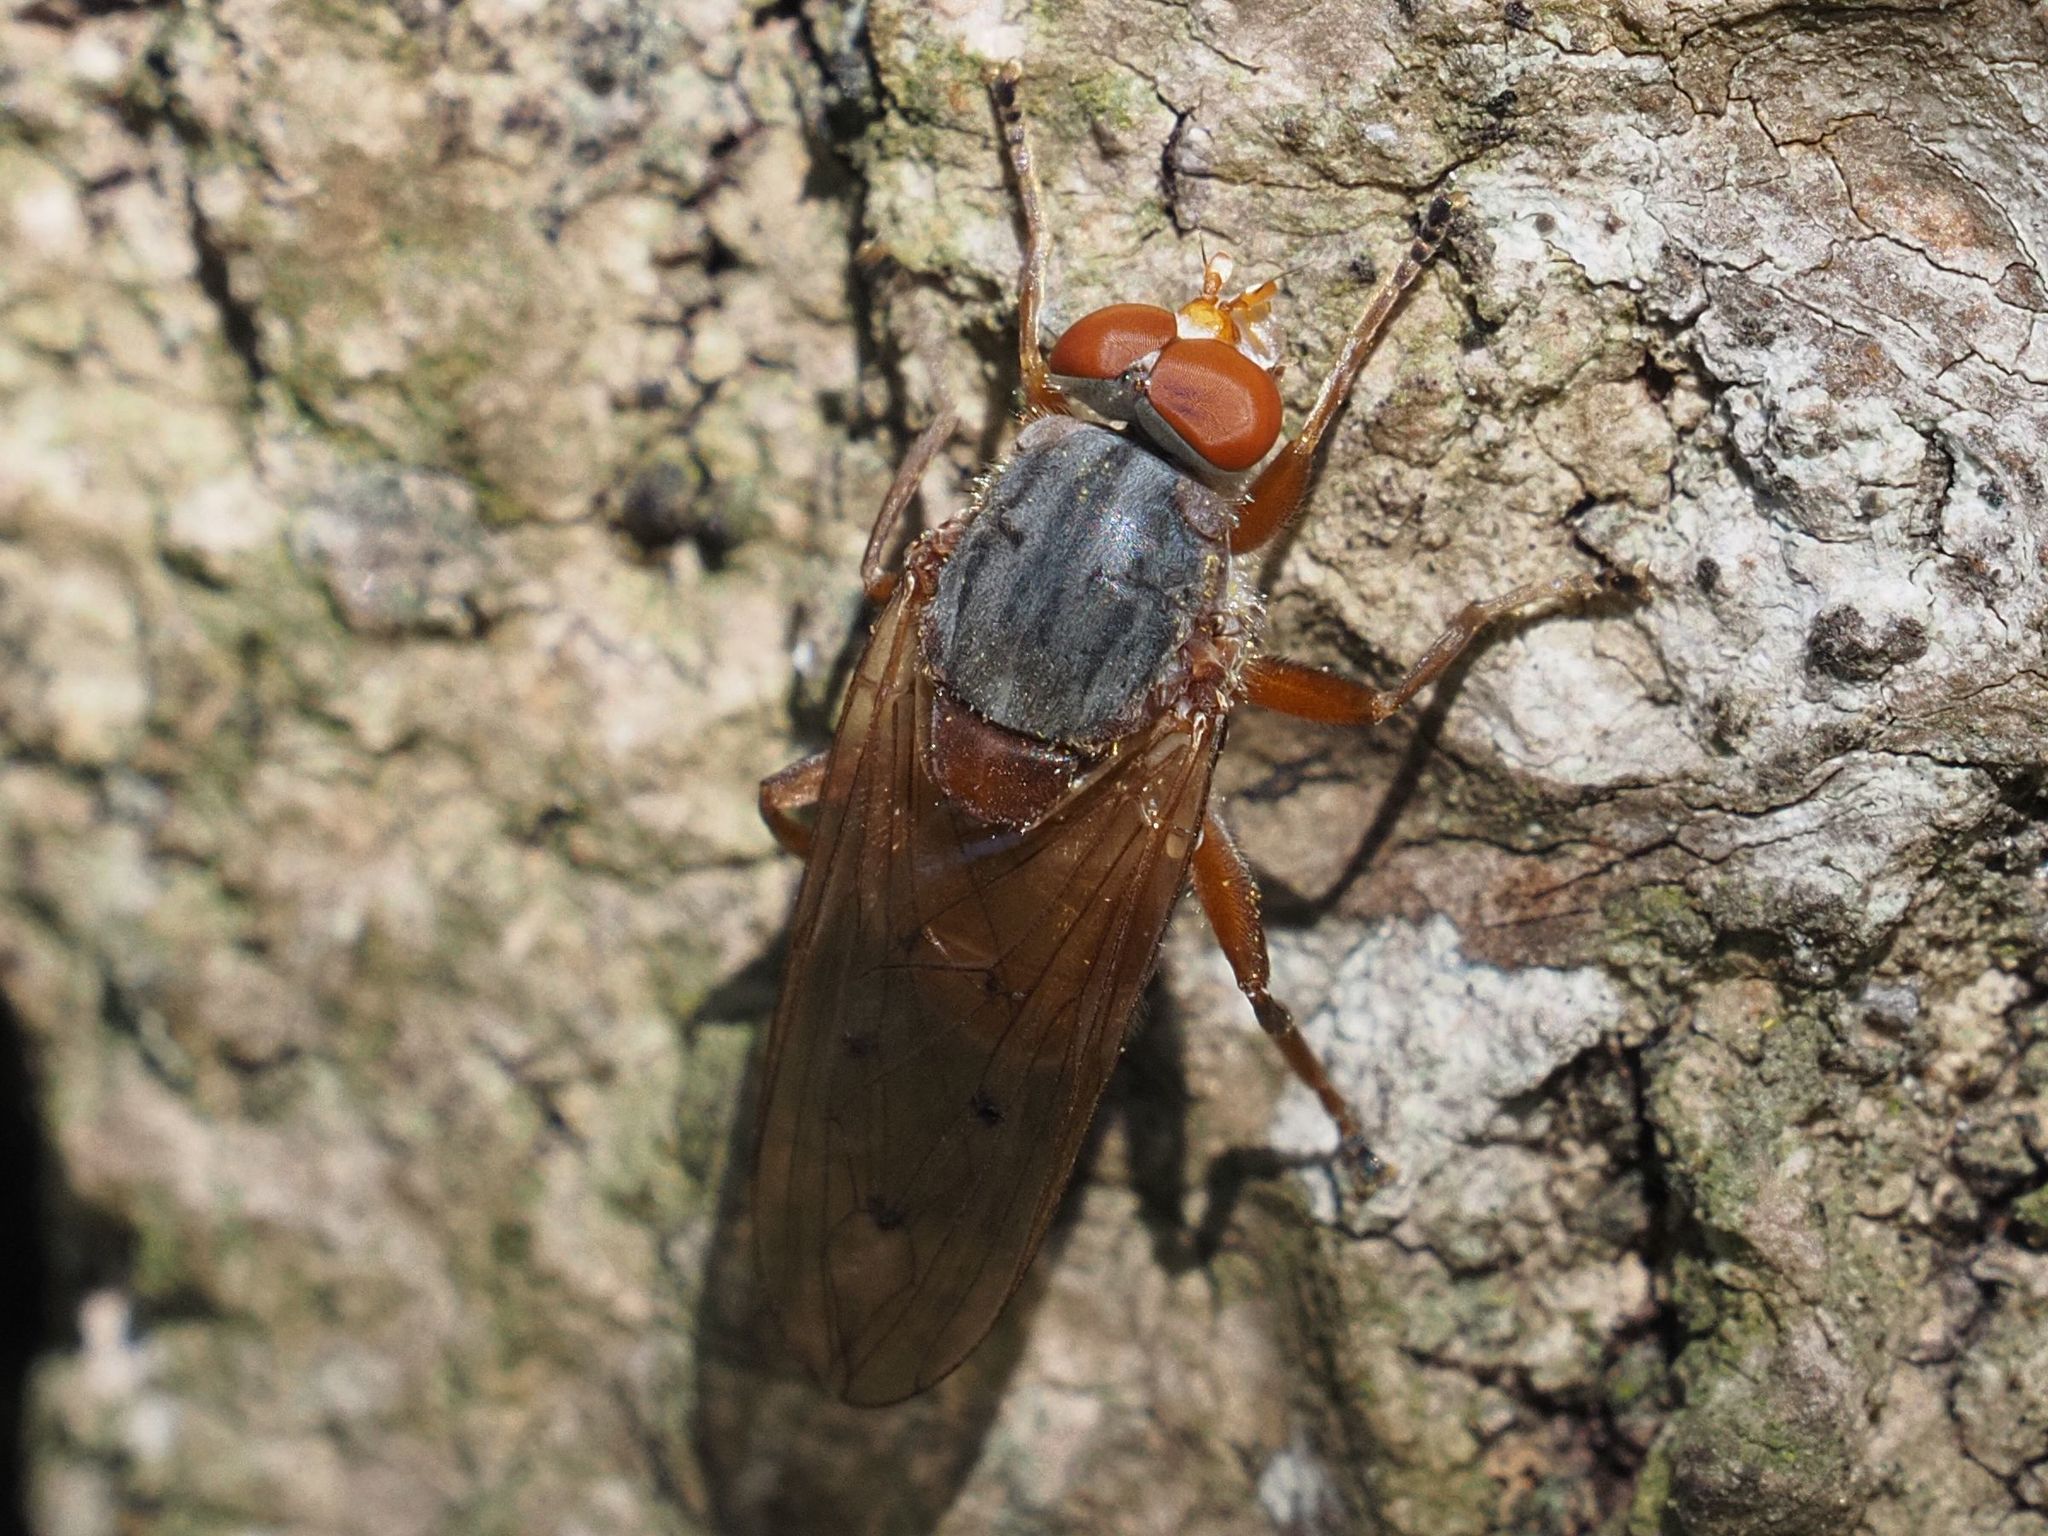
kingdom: Animalia
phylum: Arthropoda
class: Insecta
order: Diptera
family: Syrphidae
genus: Brachyopa
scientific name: Brachyopa maculipennis
